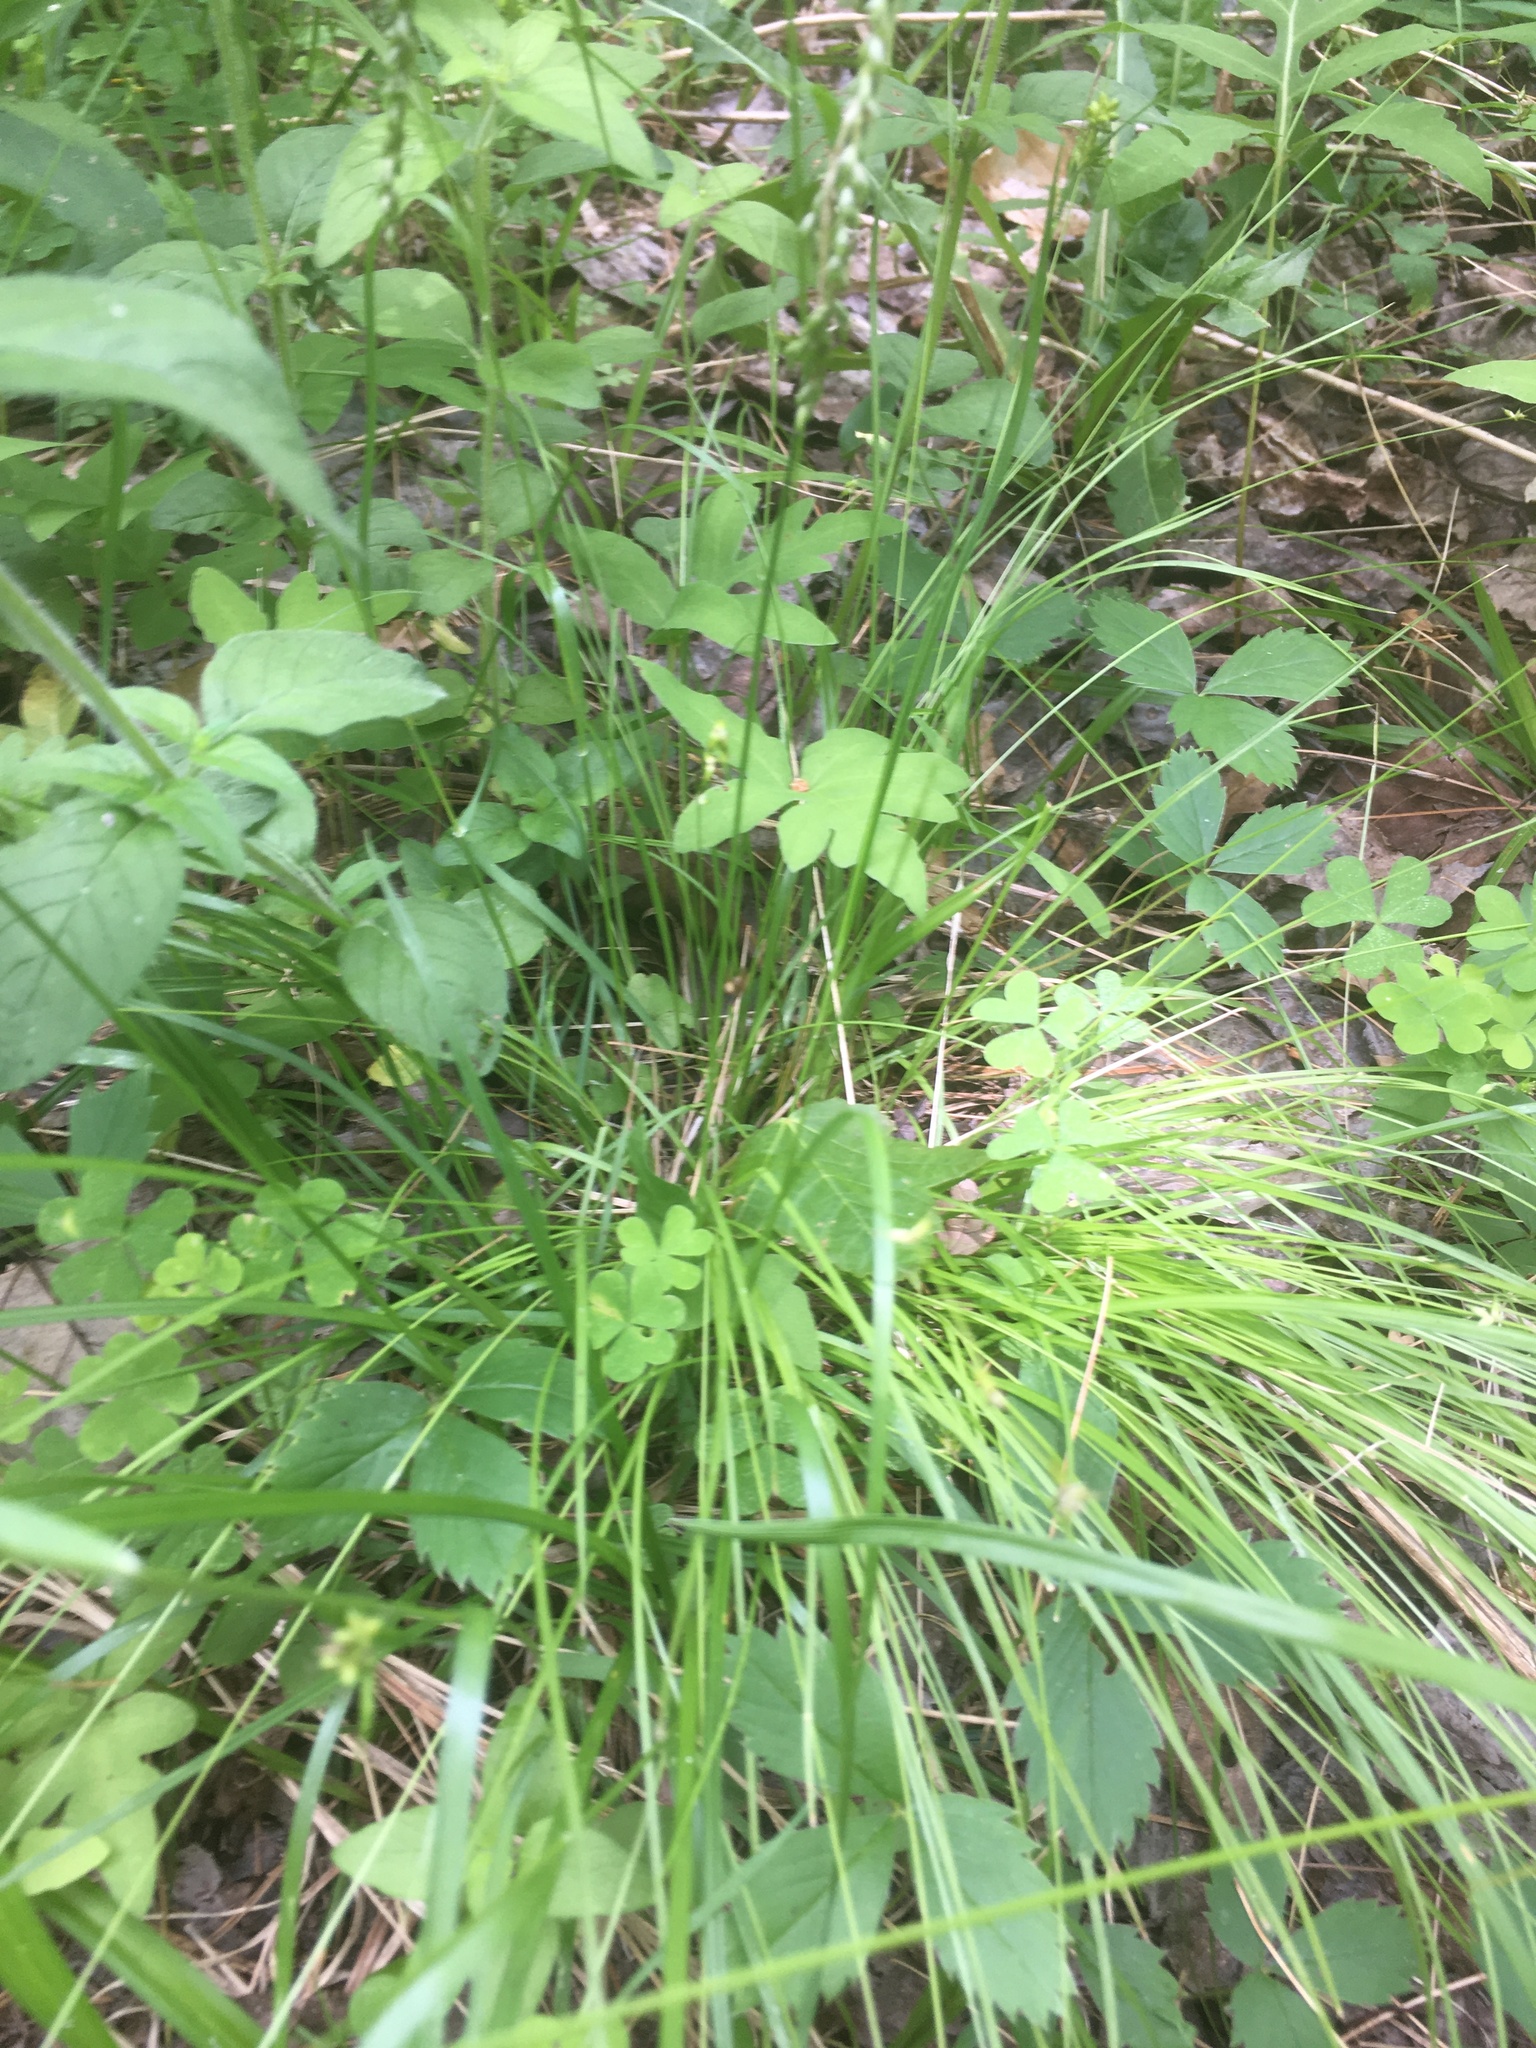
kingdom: Plantae
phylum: Tracheophyta
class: Liliopsida
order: Poales
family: Cyperaceae
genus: Carex
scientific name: Carex pallescens
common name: Pale sedge
